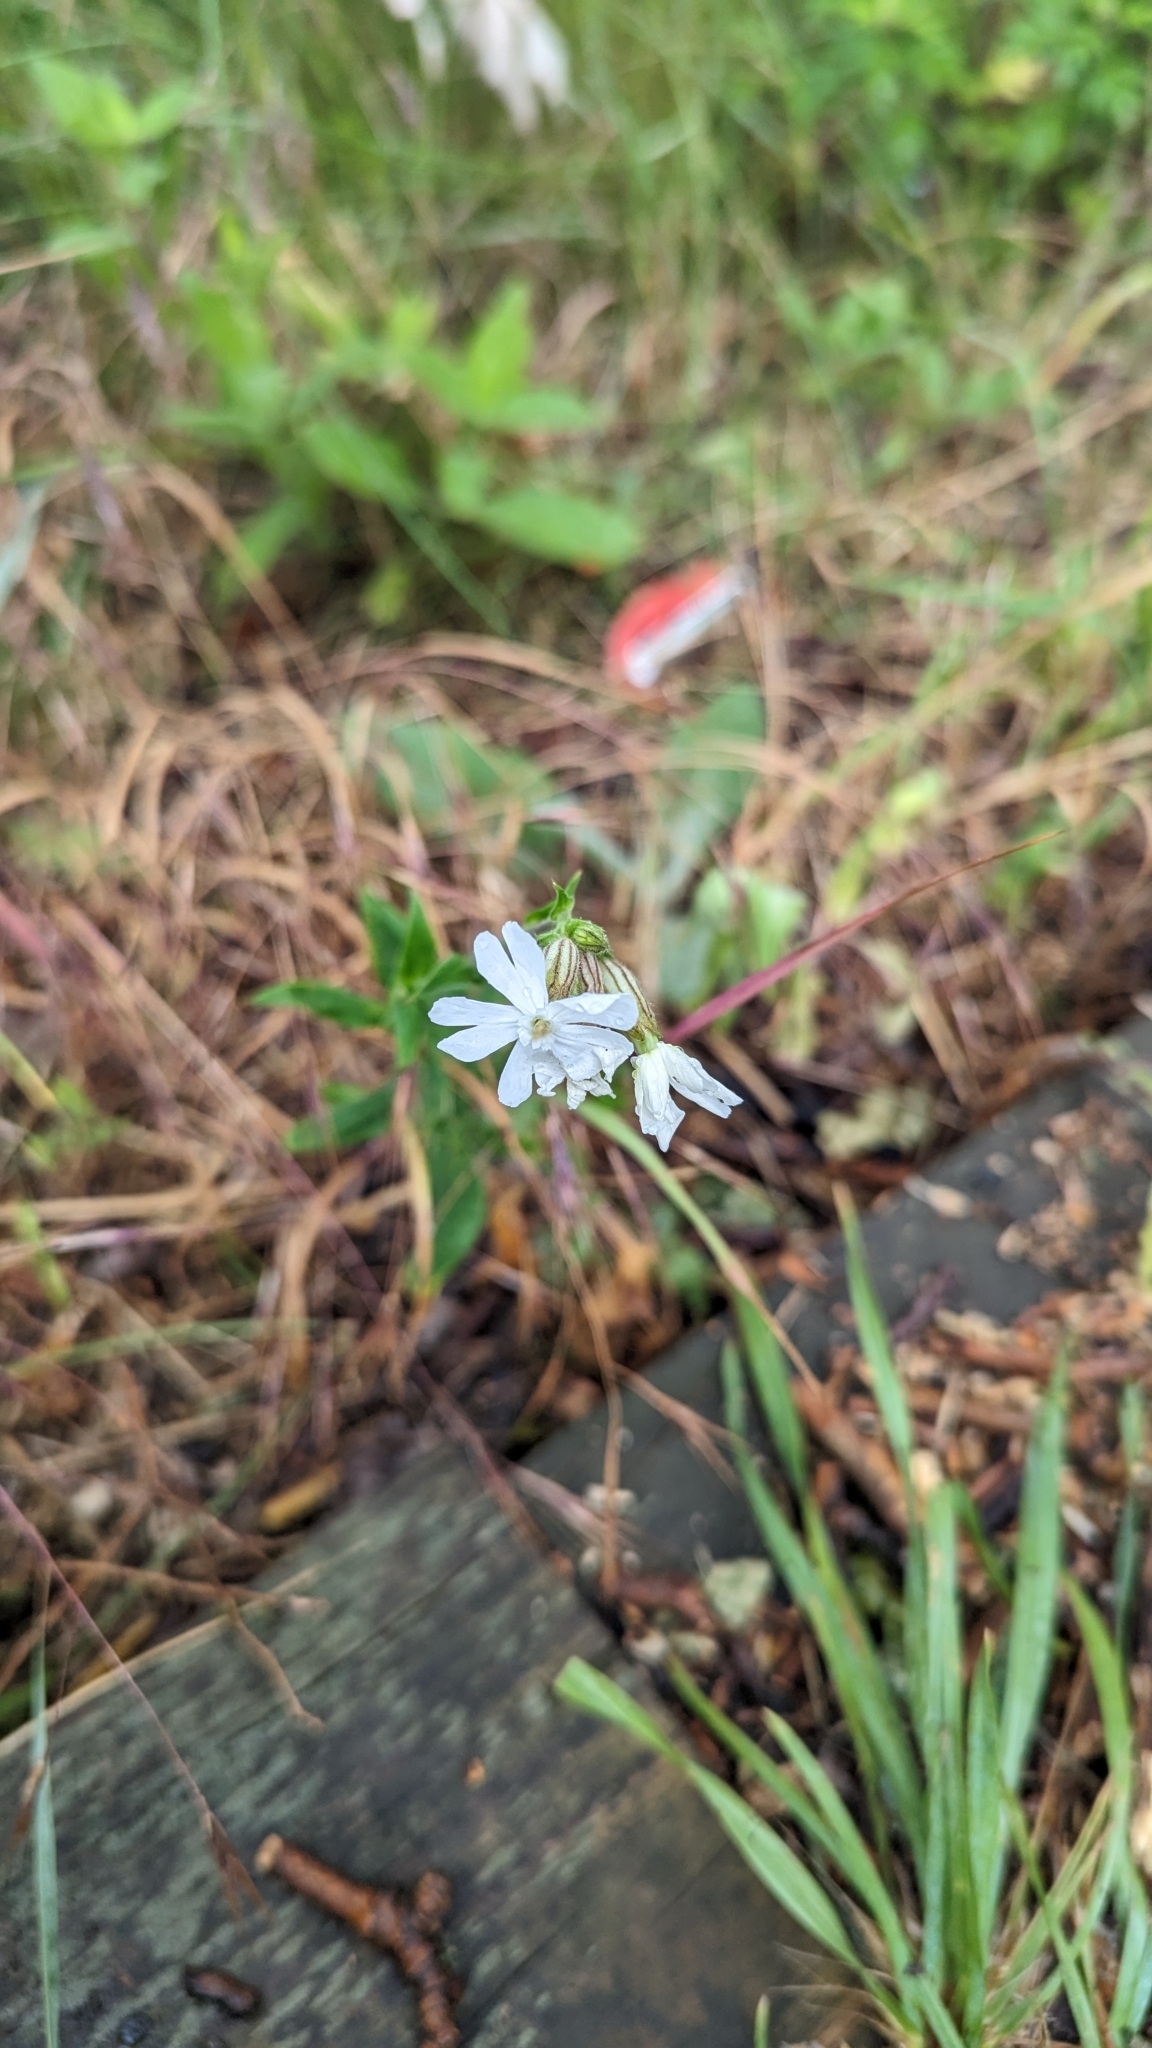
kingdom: Plantae
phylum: Tracheophyta
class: Magnoliopsida
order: Caryophyllales
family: Caryophyllaceae
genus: Silene
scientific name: Silene latifolia
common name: White campion
